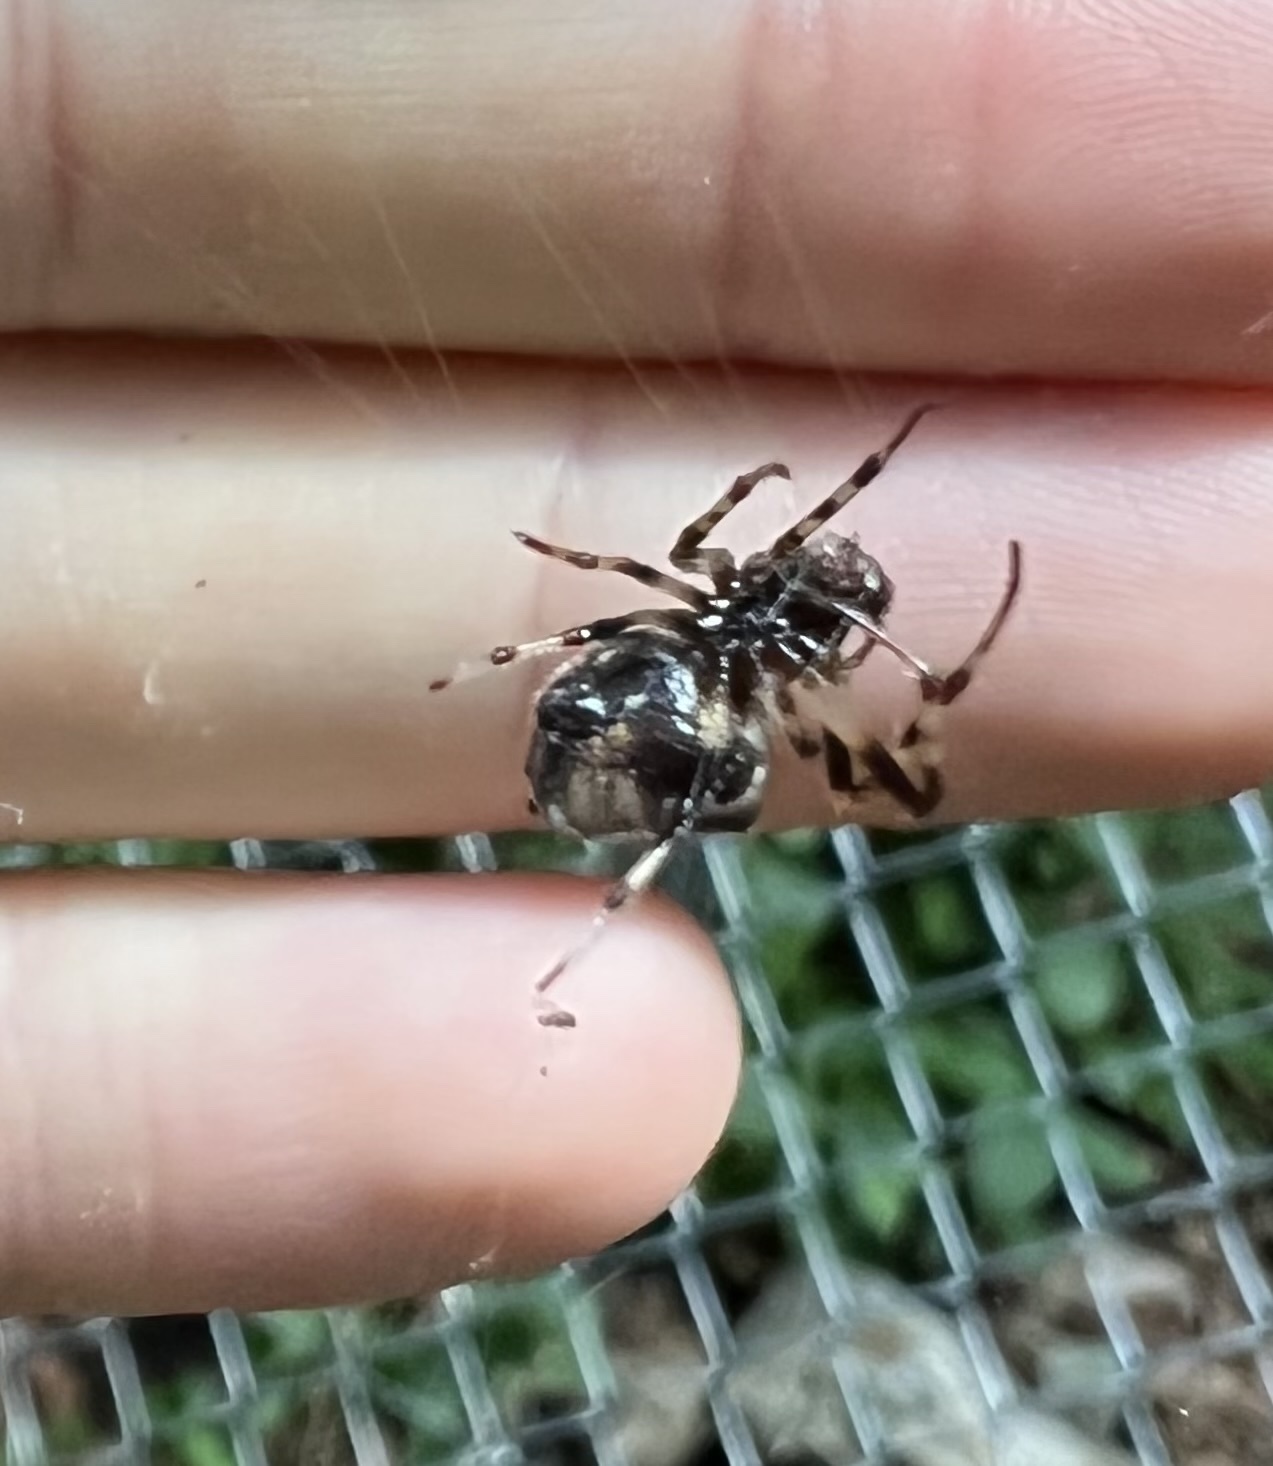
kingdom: Animalia
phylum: Arthropoda
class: Arachnida
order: Araneae
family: Araneidae
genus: Verrucosa
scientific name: Verrucosa arenata
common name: Orb weavers
